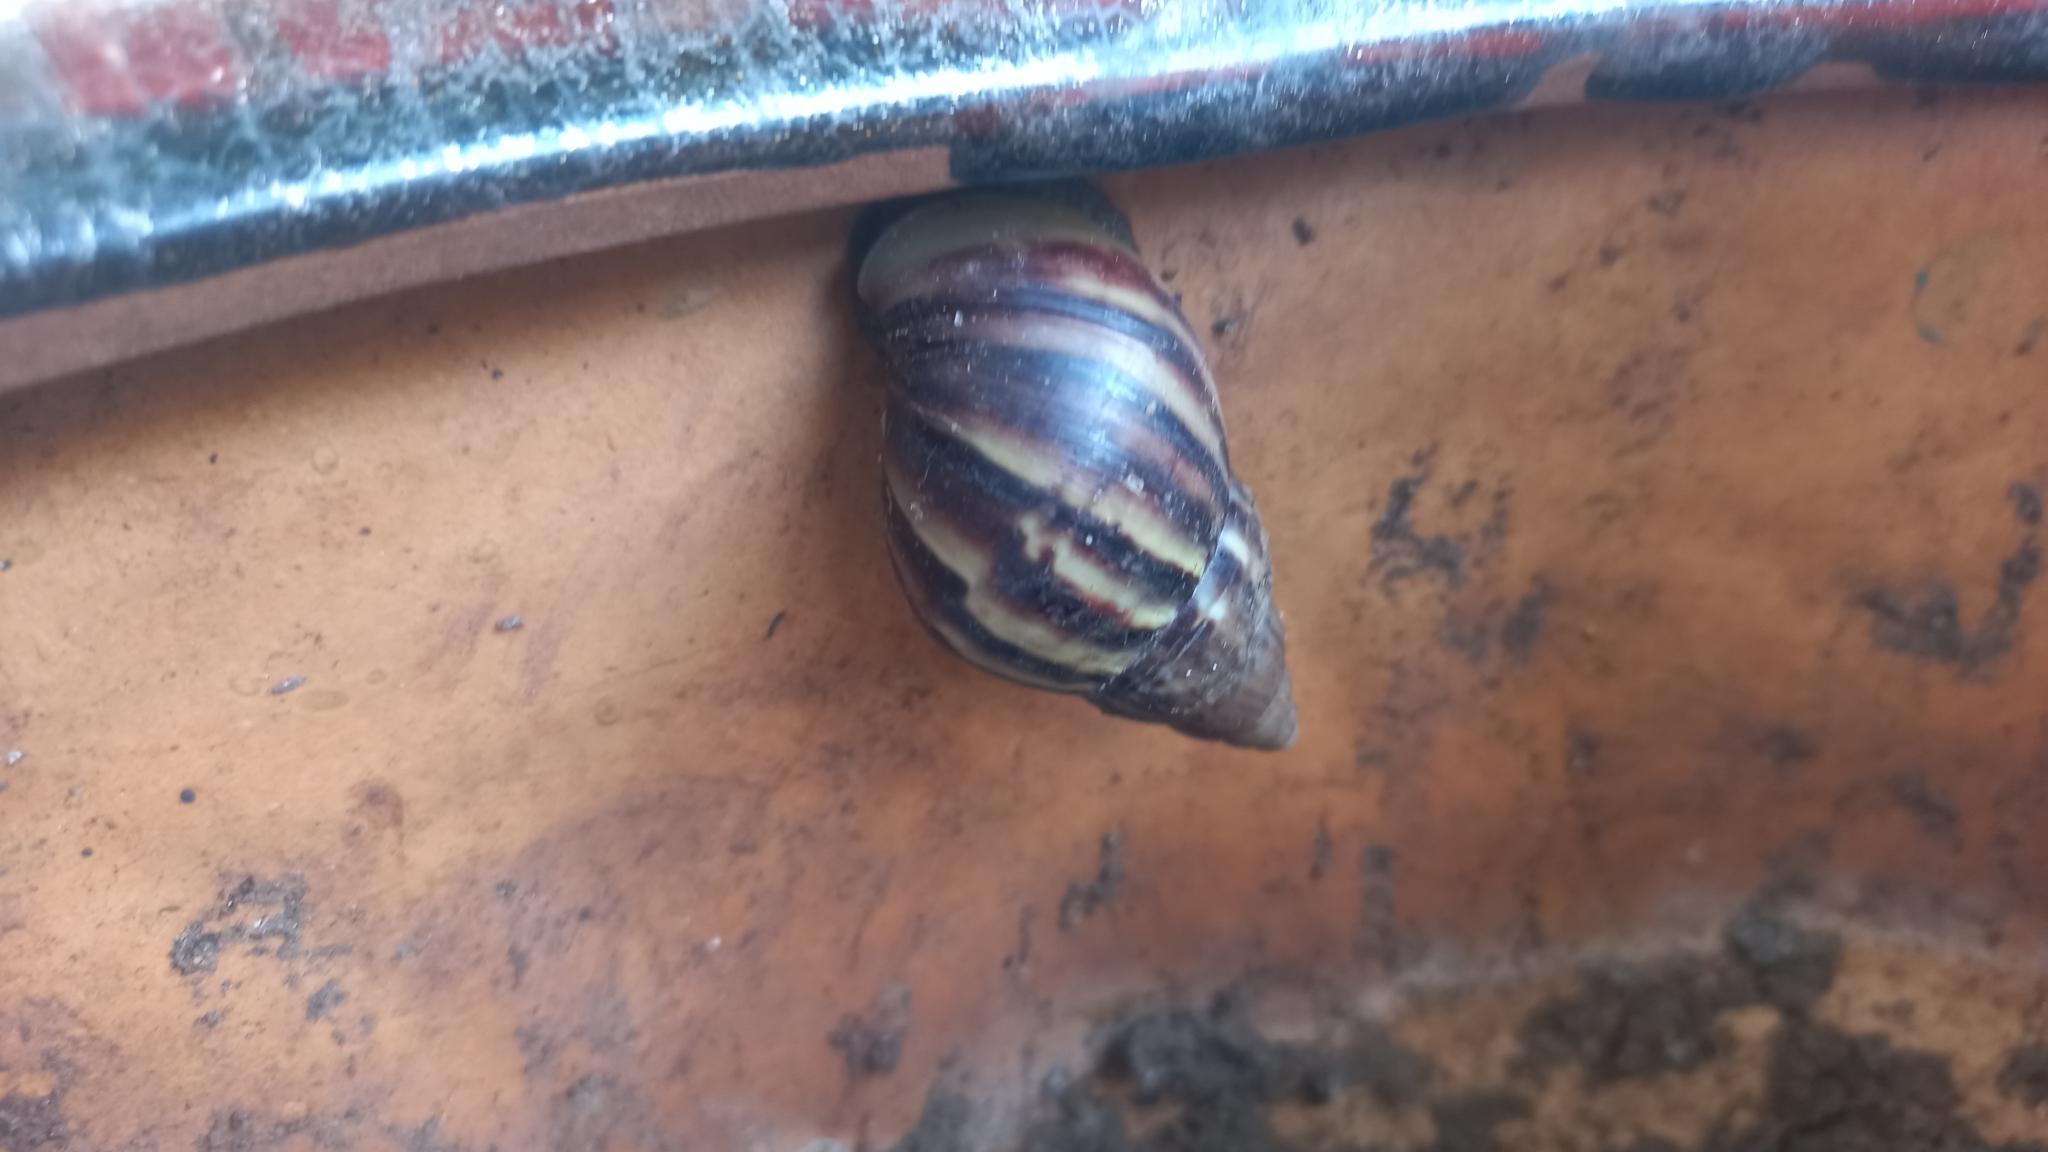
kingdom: Animalia
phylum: Mollusca
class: Gastropoda
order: Stylommatophora
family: Achatinidae
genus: Lissachatina
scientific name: Lissachatina fulica
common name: Giant african snail
